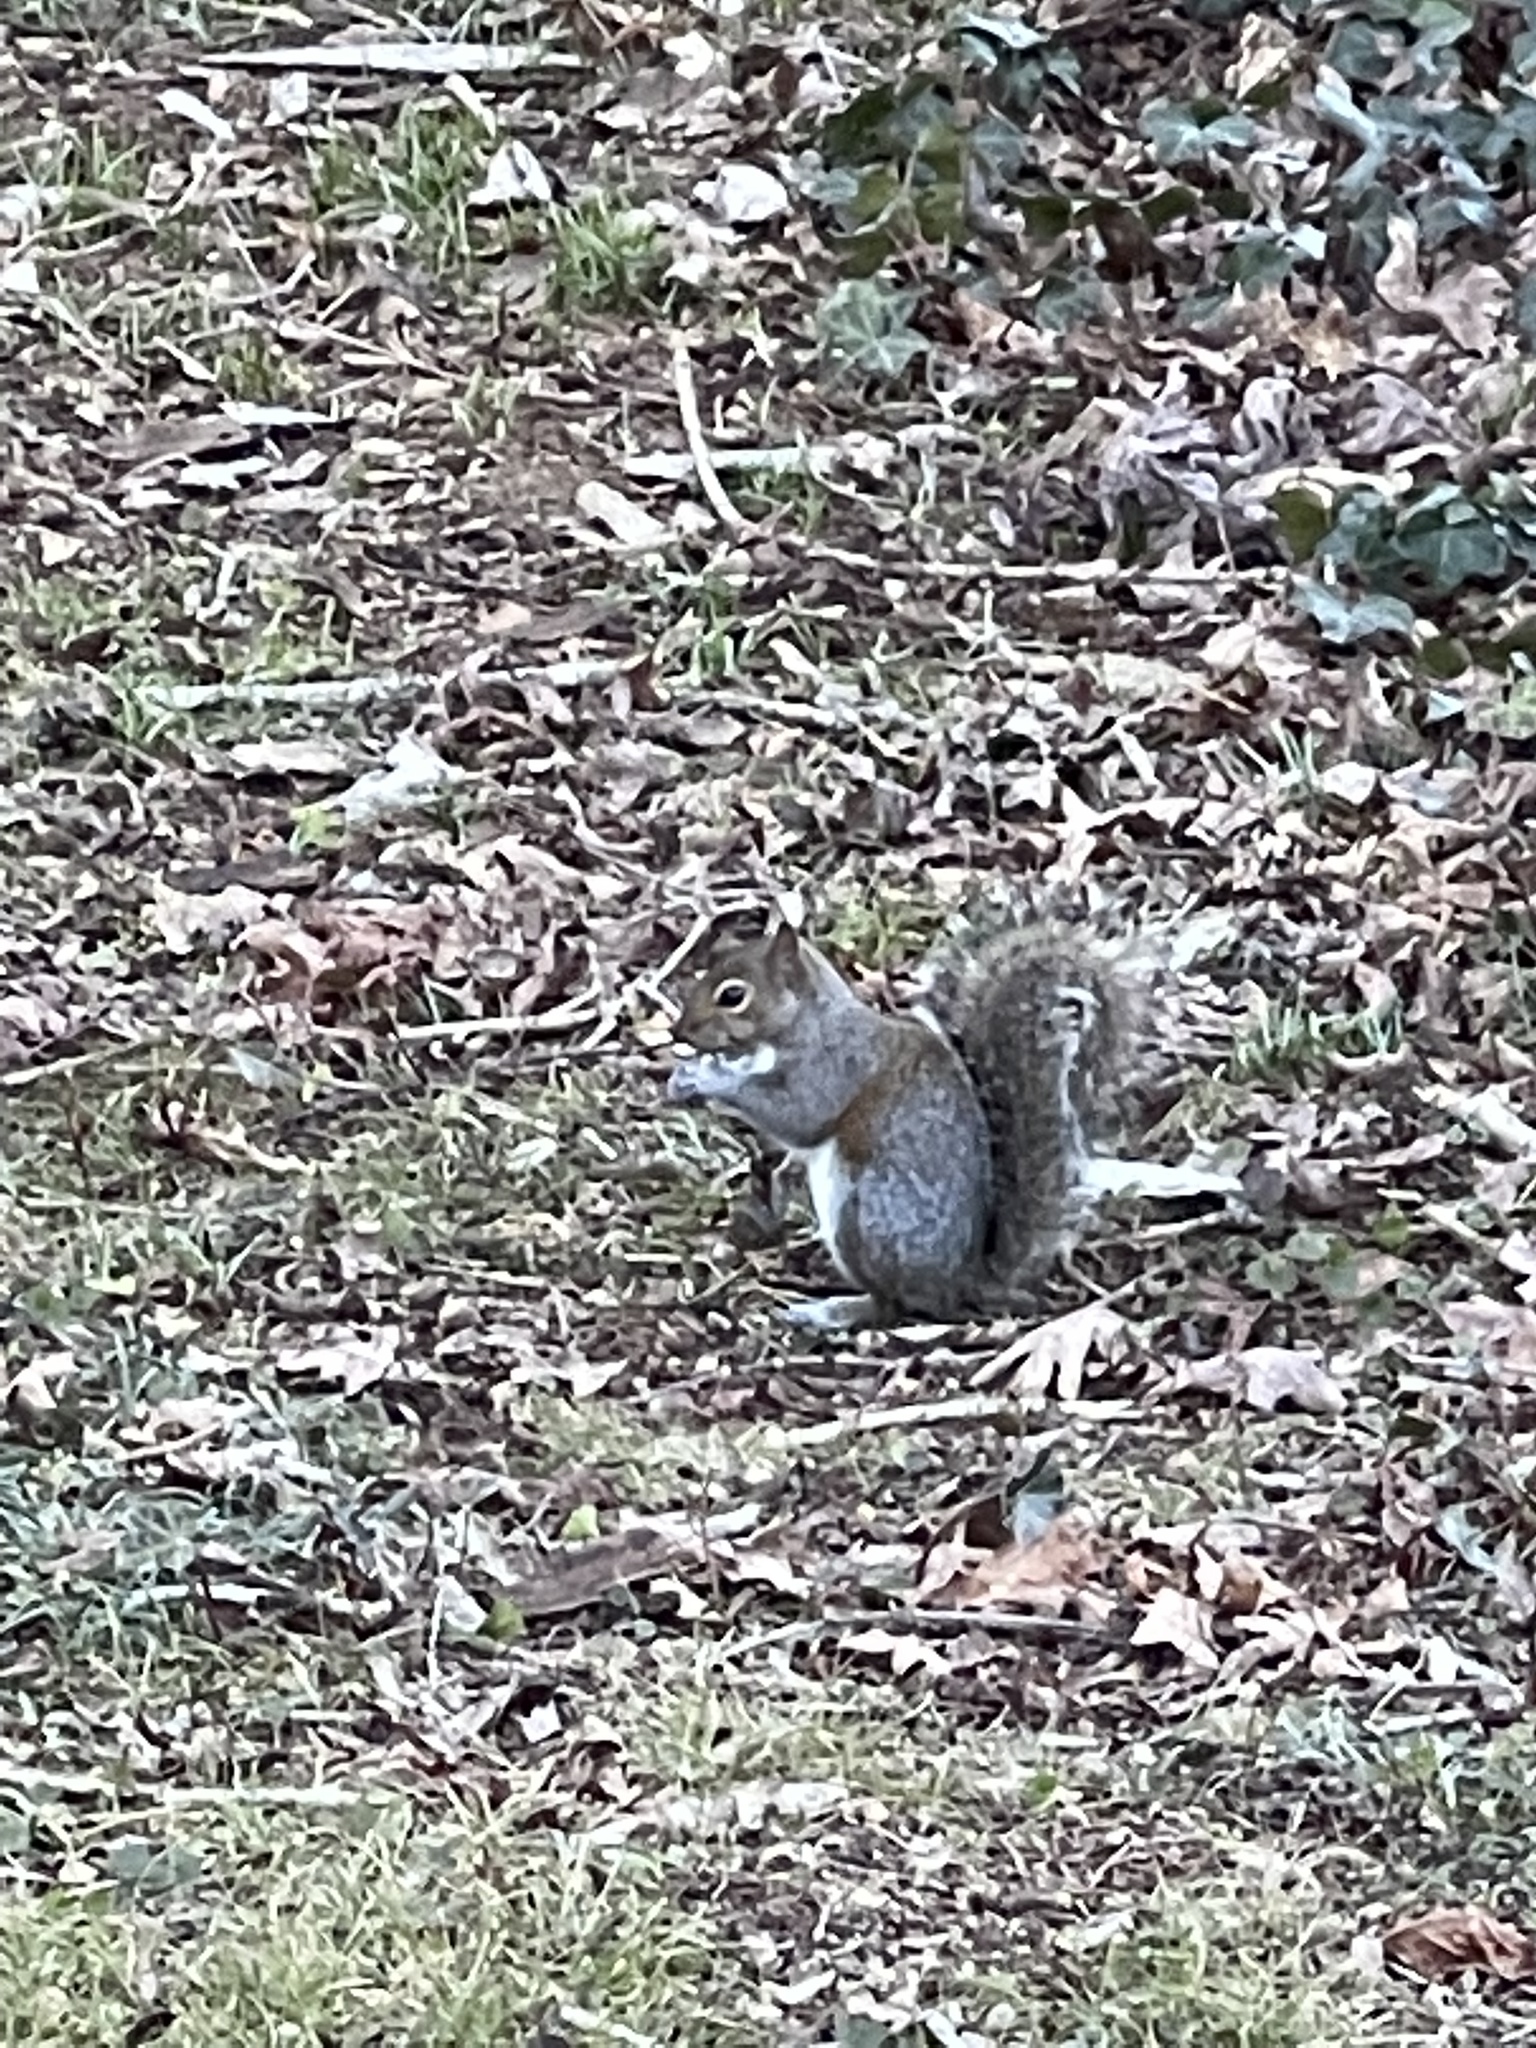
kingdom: Animalia
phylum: Chordata
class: Mammalia
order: Rodentia
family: Sciuridae
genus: Sciurus
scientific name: Sciurus carolinensis
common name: Eastern gray squirrel
